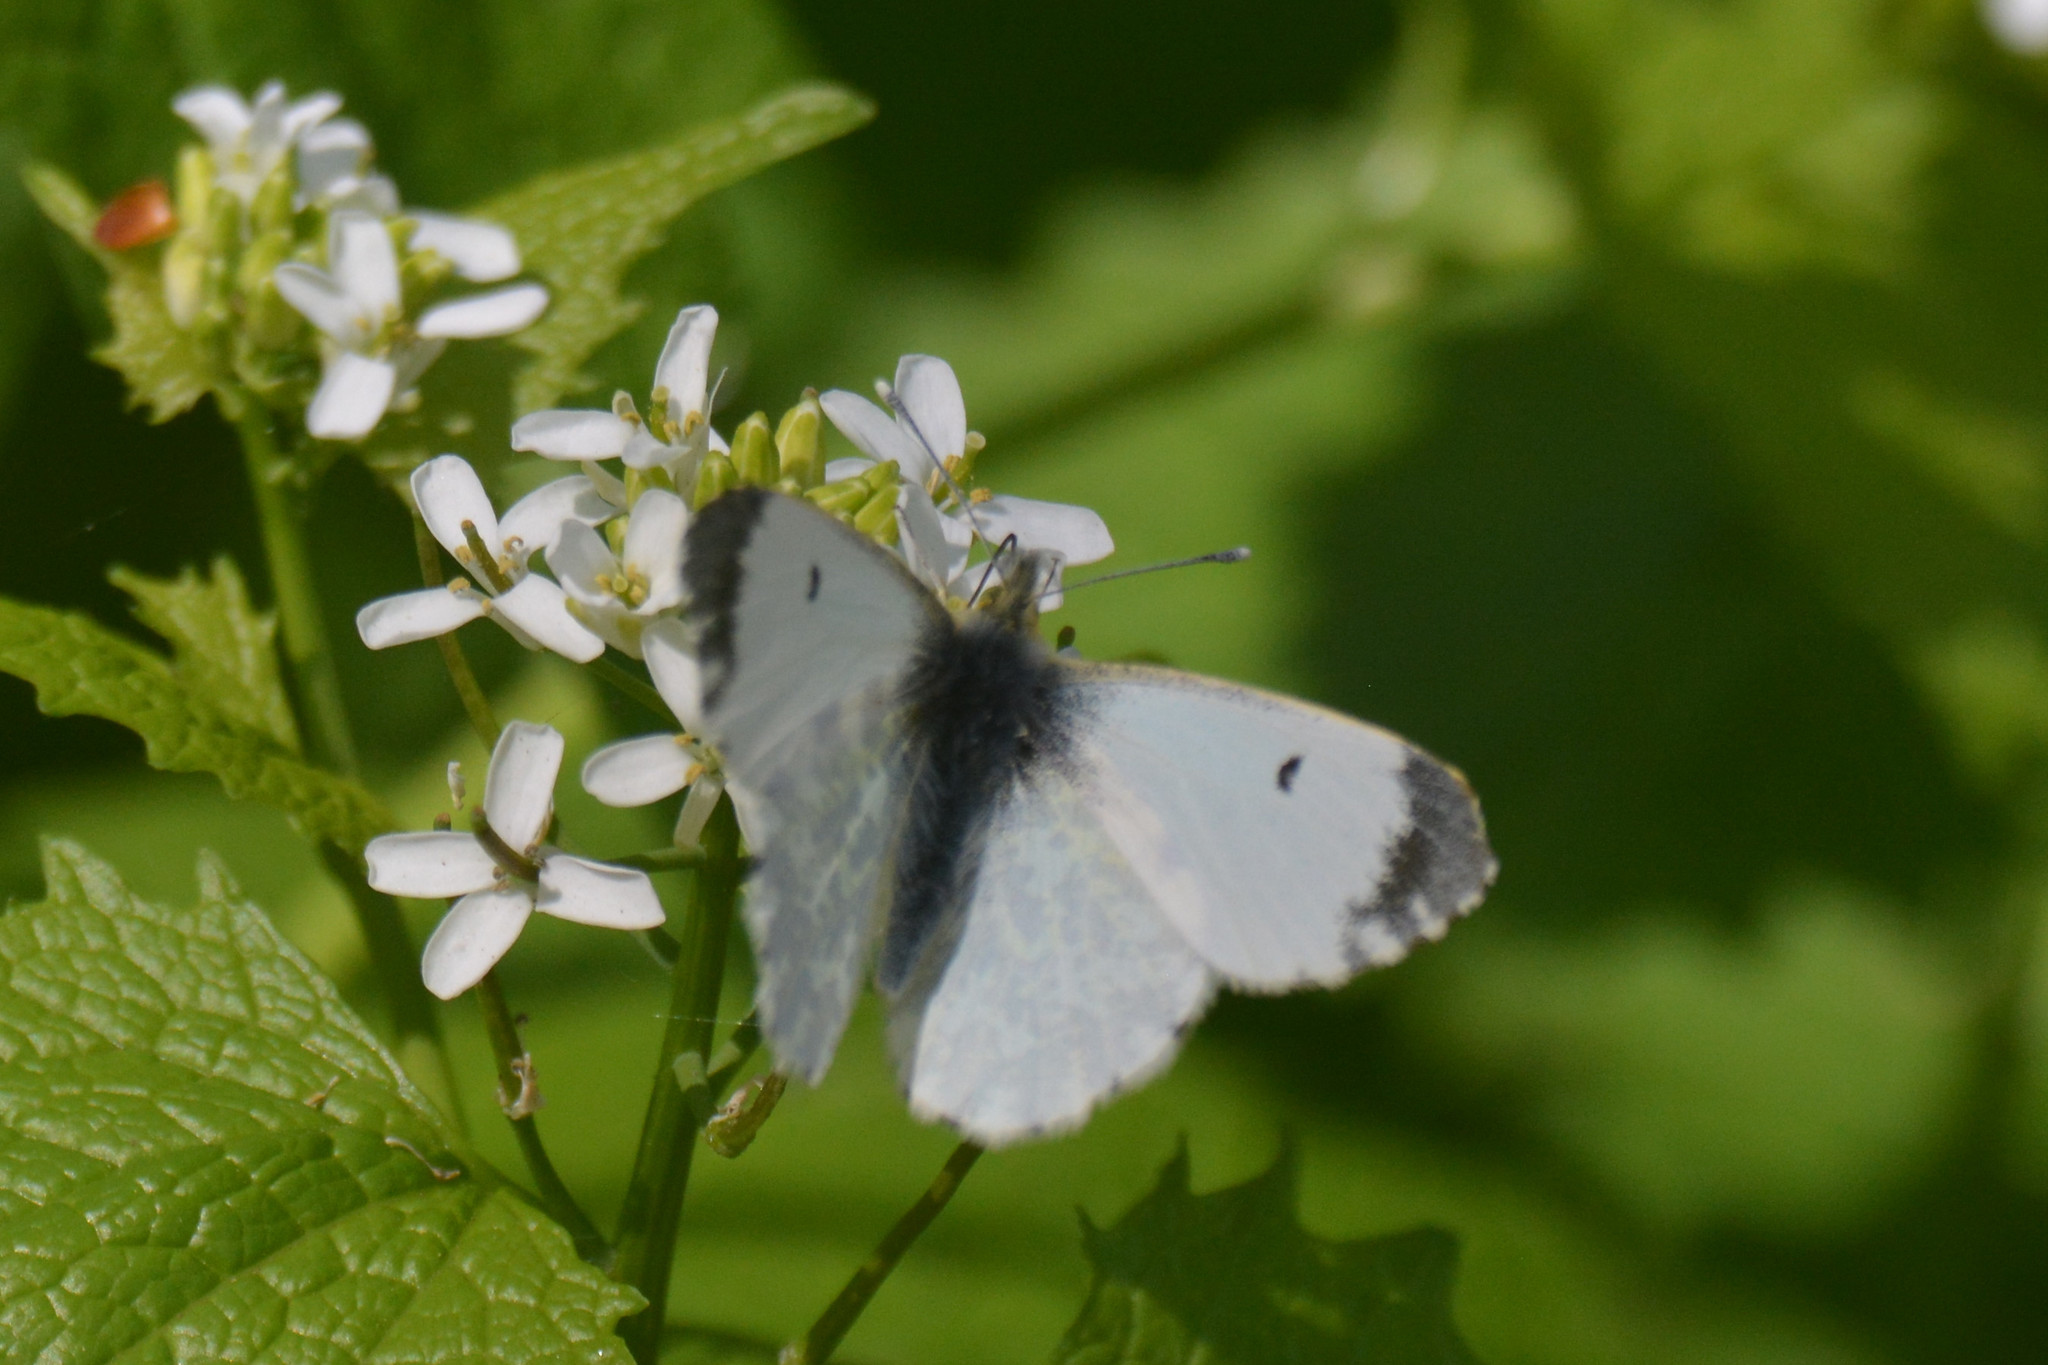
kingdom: Animalia
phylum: Arthropoda
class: Insecta
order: Lepidoptera
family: Pieridae
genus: Anthocharis
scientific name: Anthocharis cardamines
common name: Orange-tip
